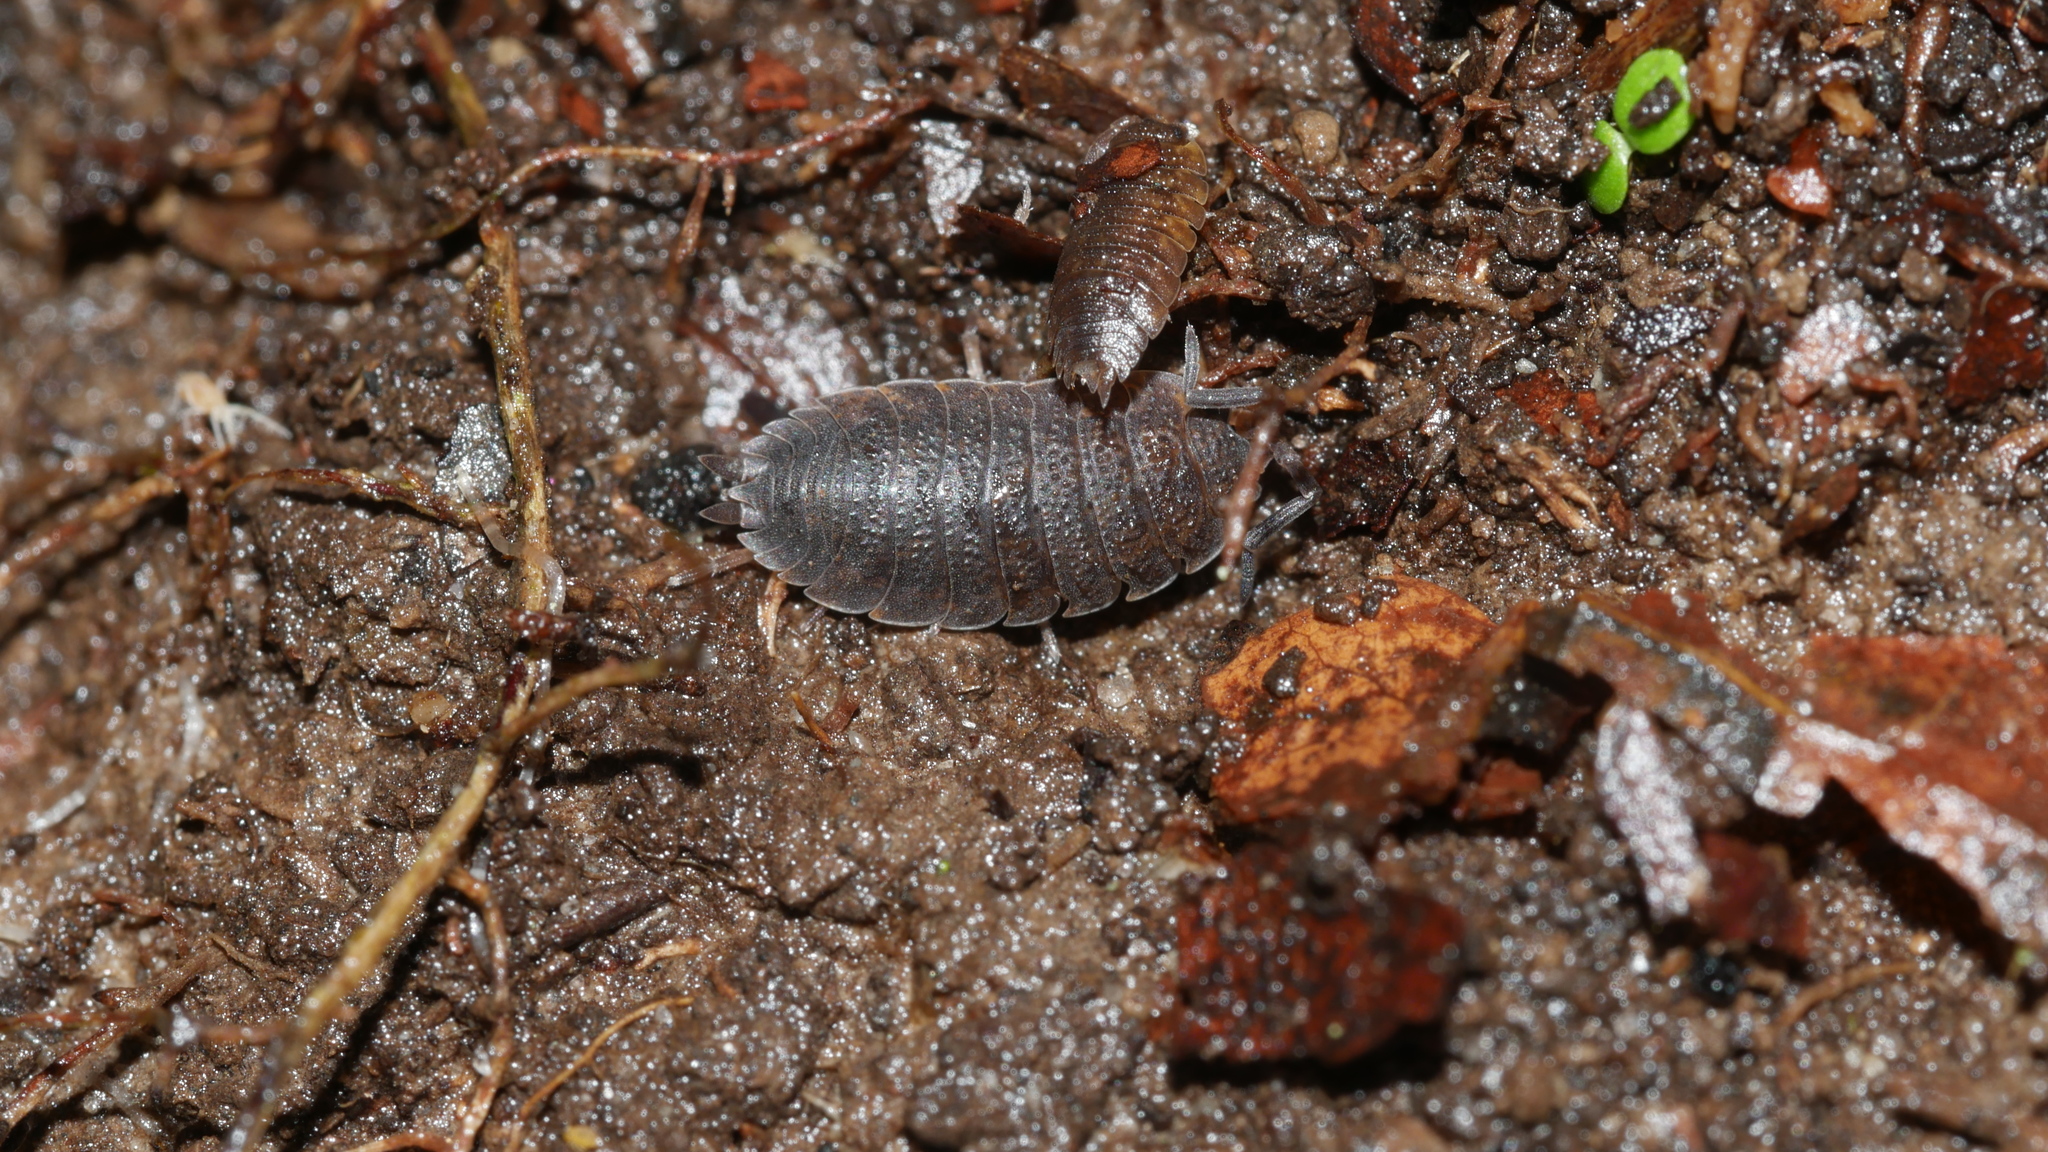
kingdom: Animalia
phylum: Arthropoda
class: Malacostraca
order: Isopoda
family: Porcellionidae
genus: Porcellio
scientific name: Porcellio scaber
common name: Common rough woodlouse
